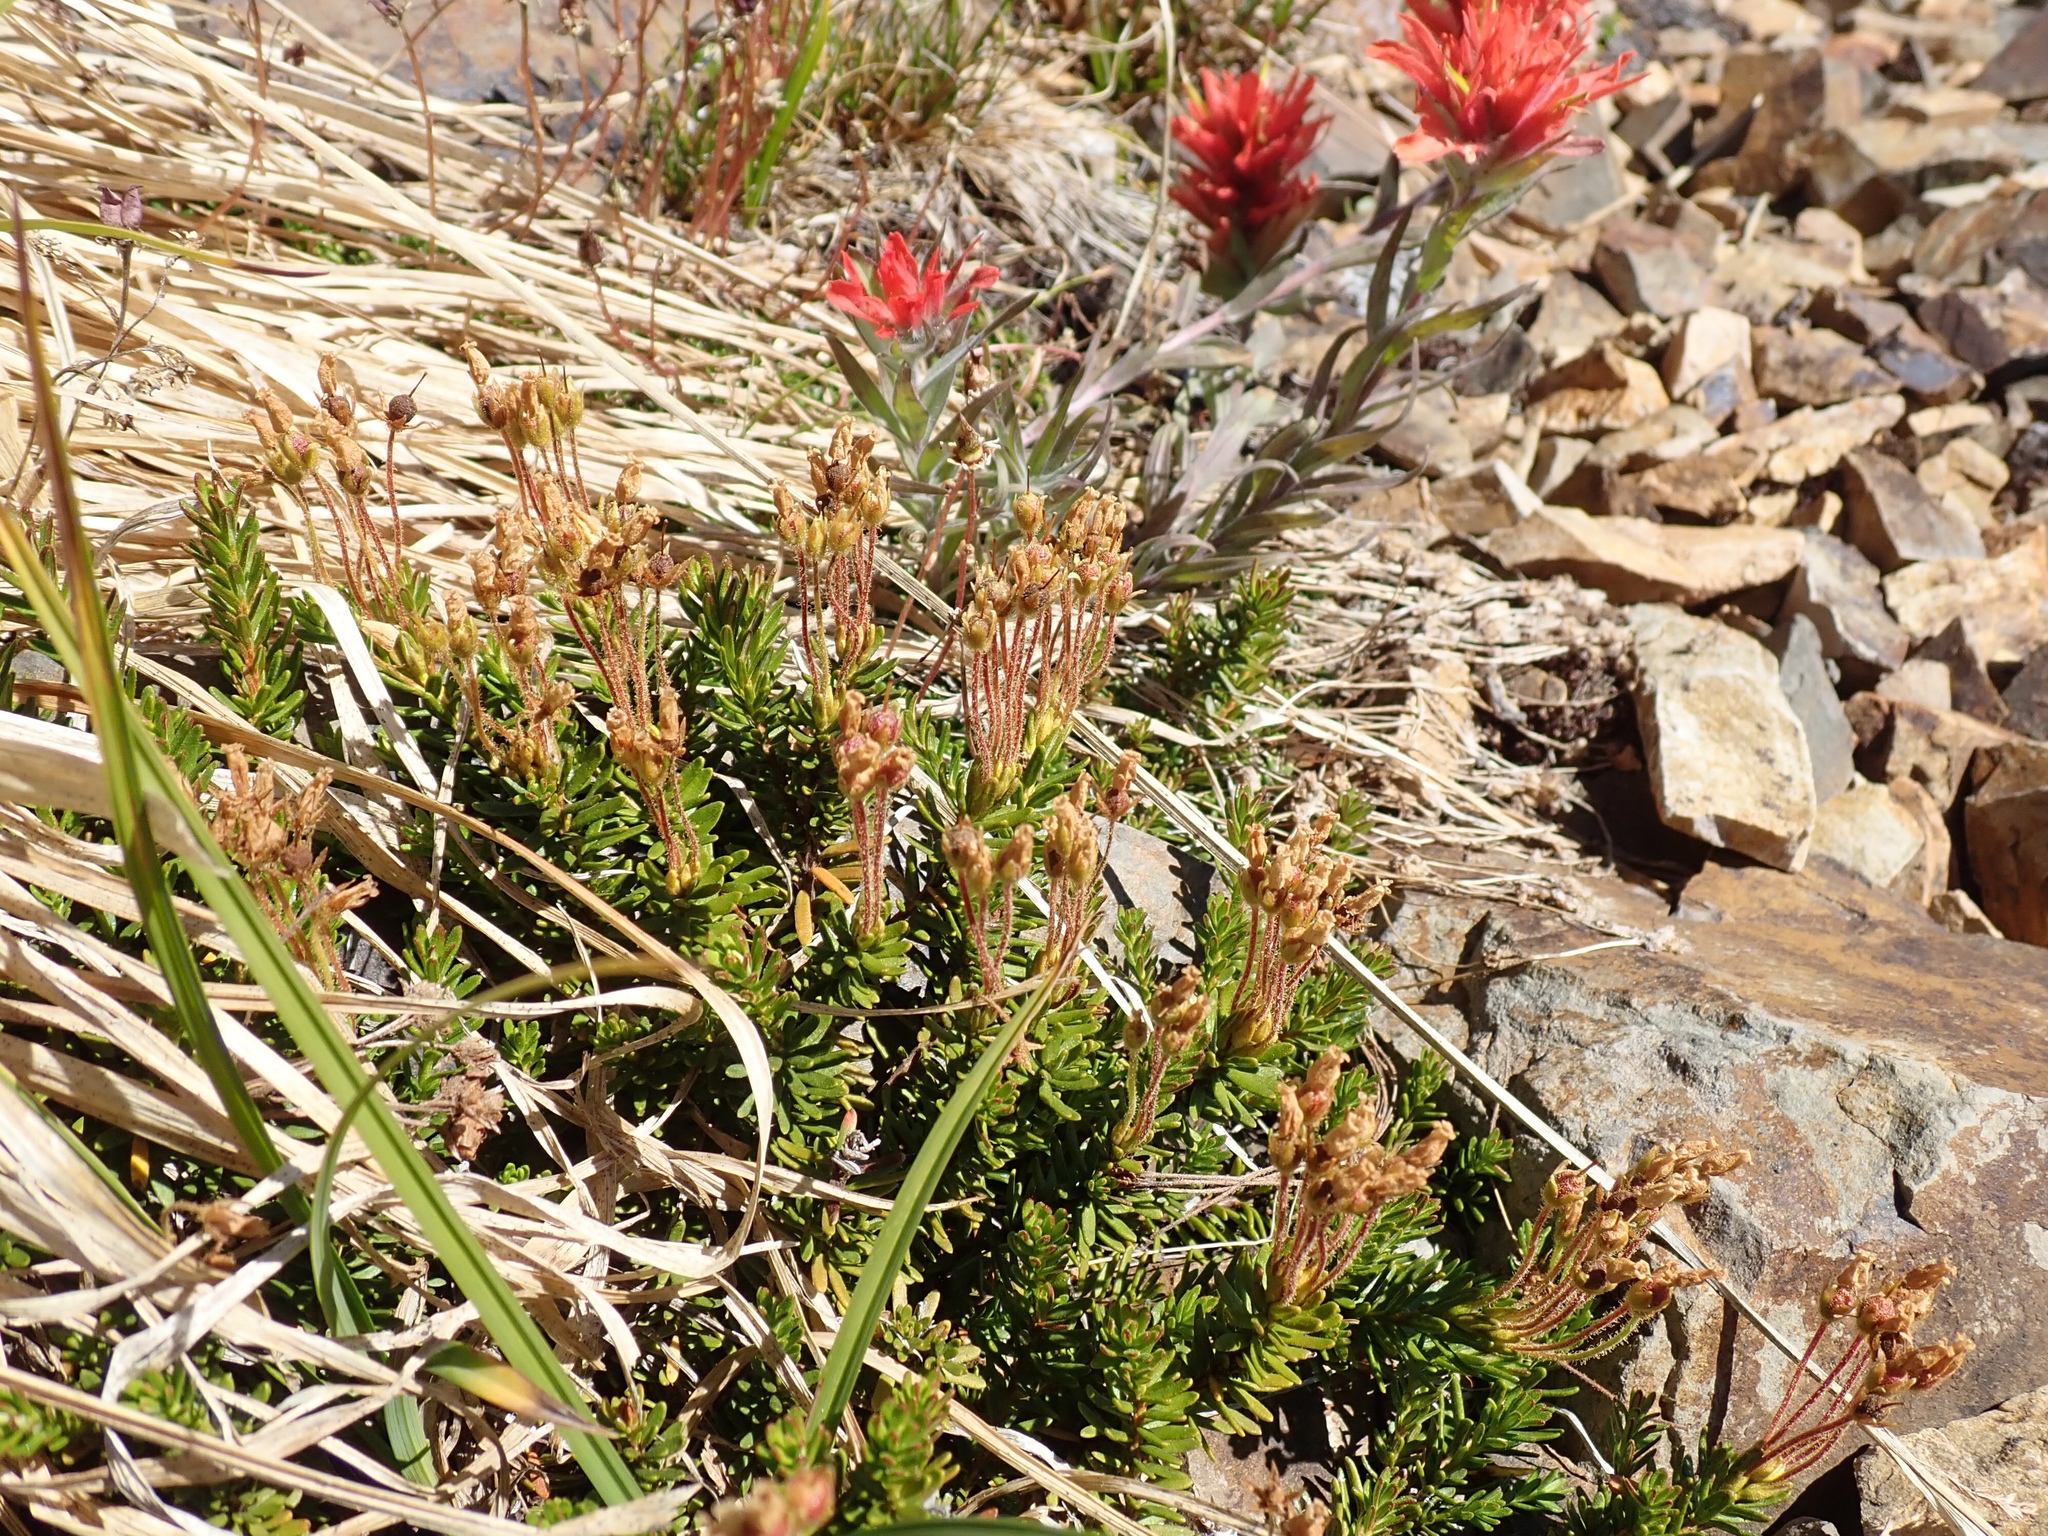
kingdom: Plantae
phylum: Tracheophyta
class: Magnoliopsida
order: Ericales
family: Ericaceae
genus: Phyllodoce
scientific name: Phyllodoce glanduliflora
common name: Cream mountain heather
